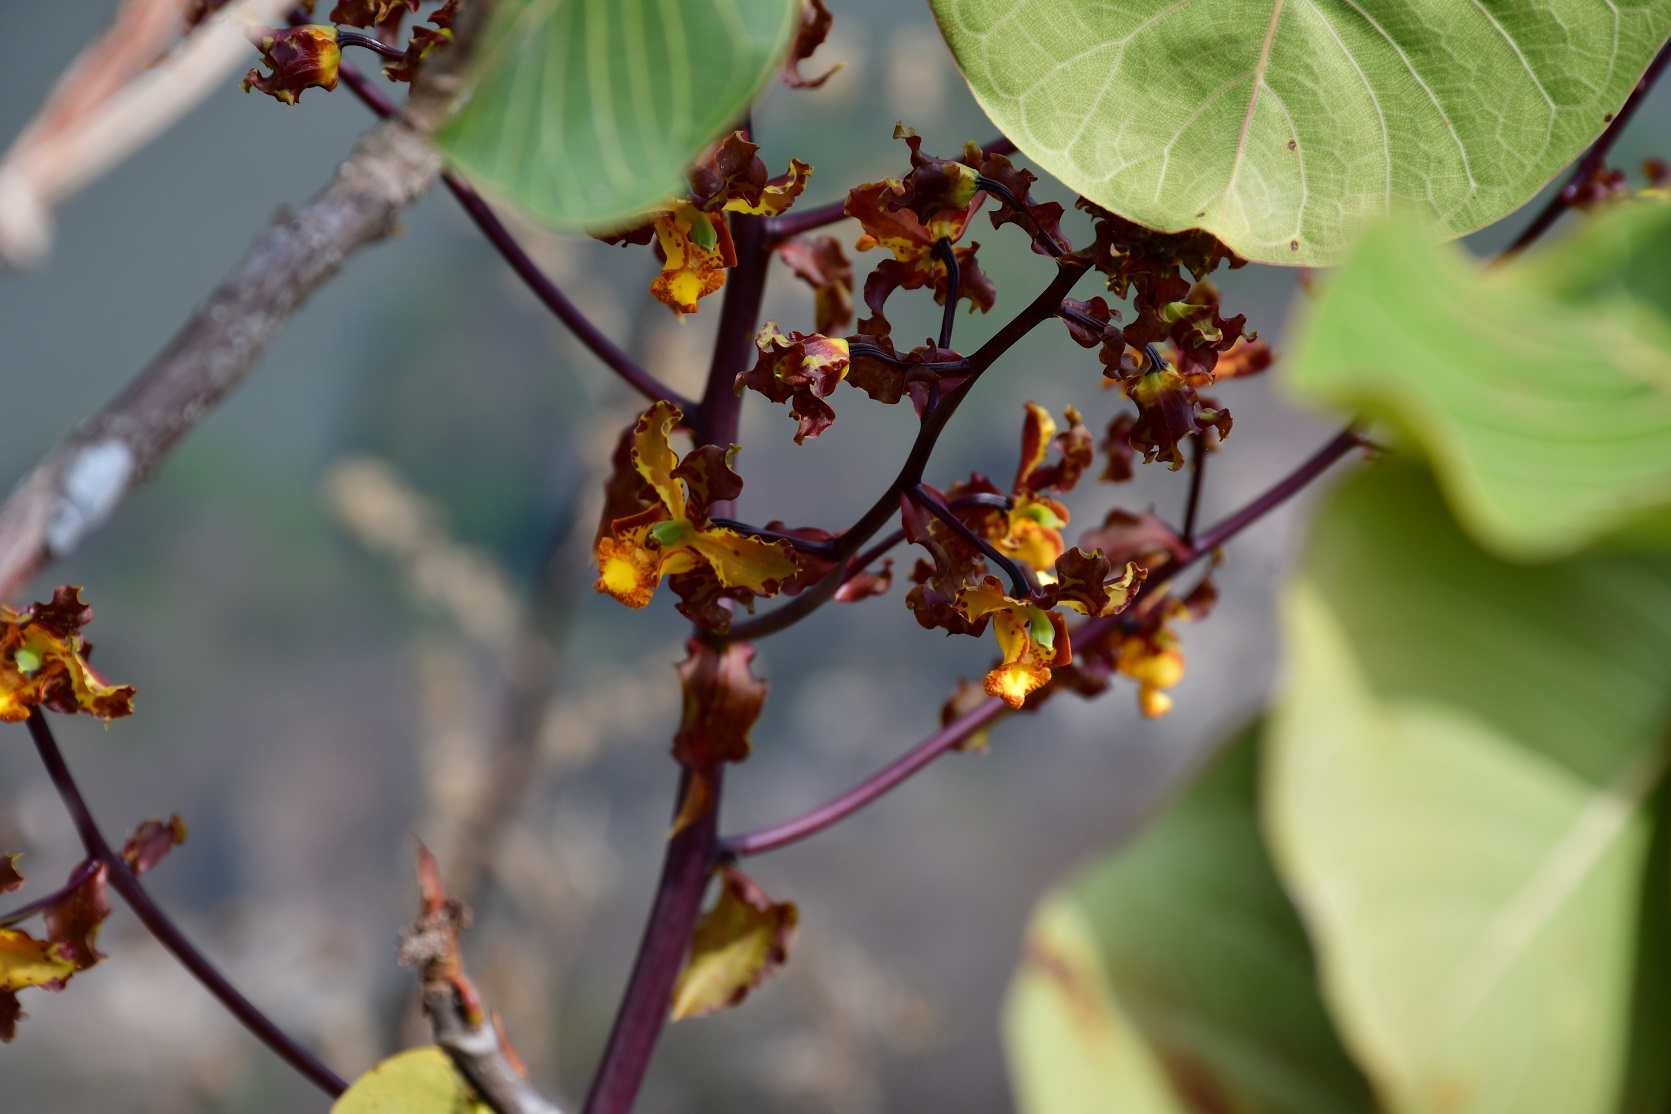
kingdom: Plantae
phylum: Tracheophyta
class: Liliopsida
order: Asparagales
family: Orchidaceae
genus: Cyrtopodium
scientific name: Cyrtopodium macrobulbon
